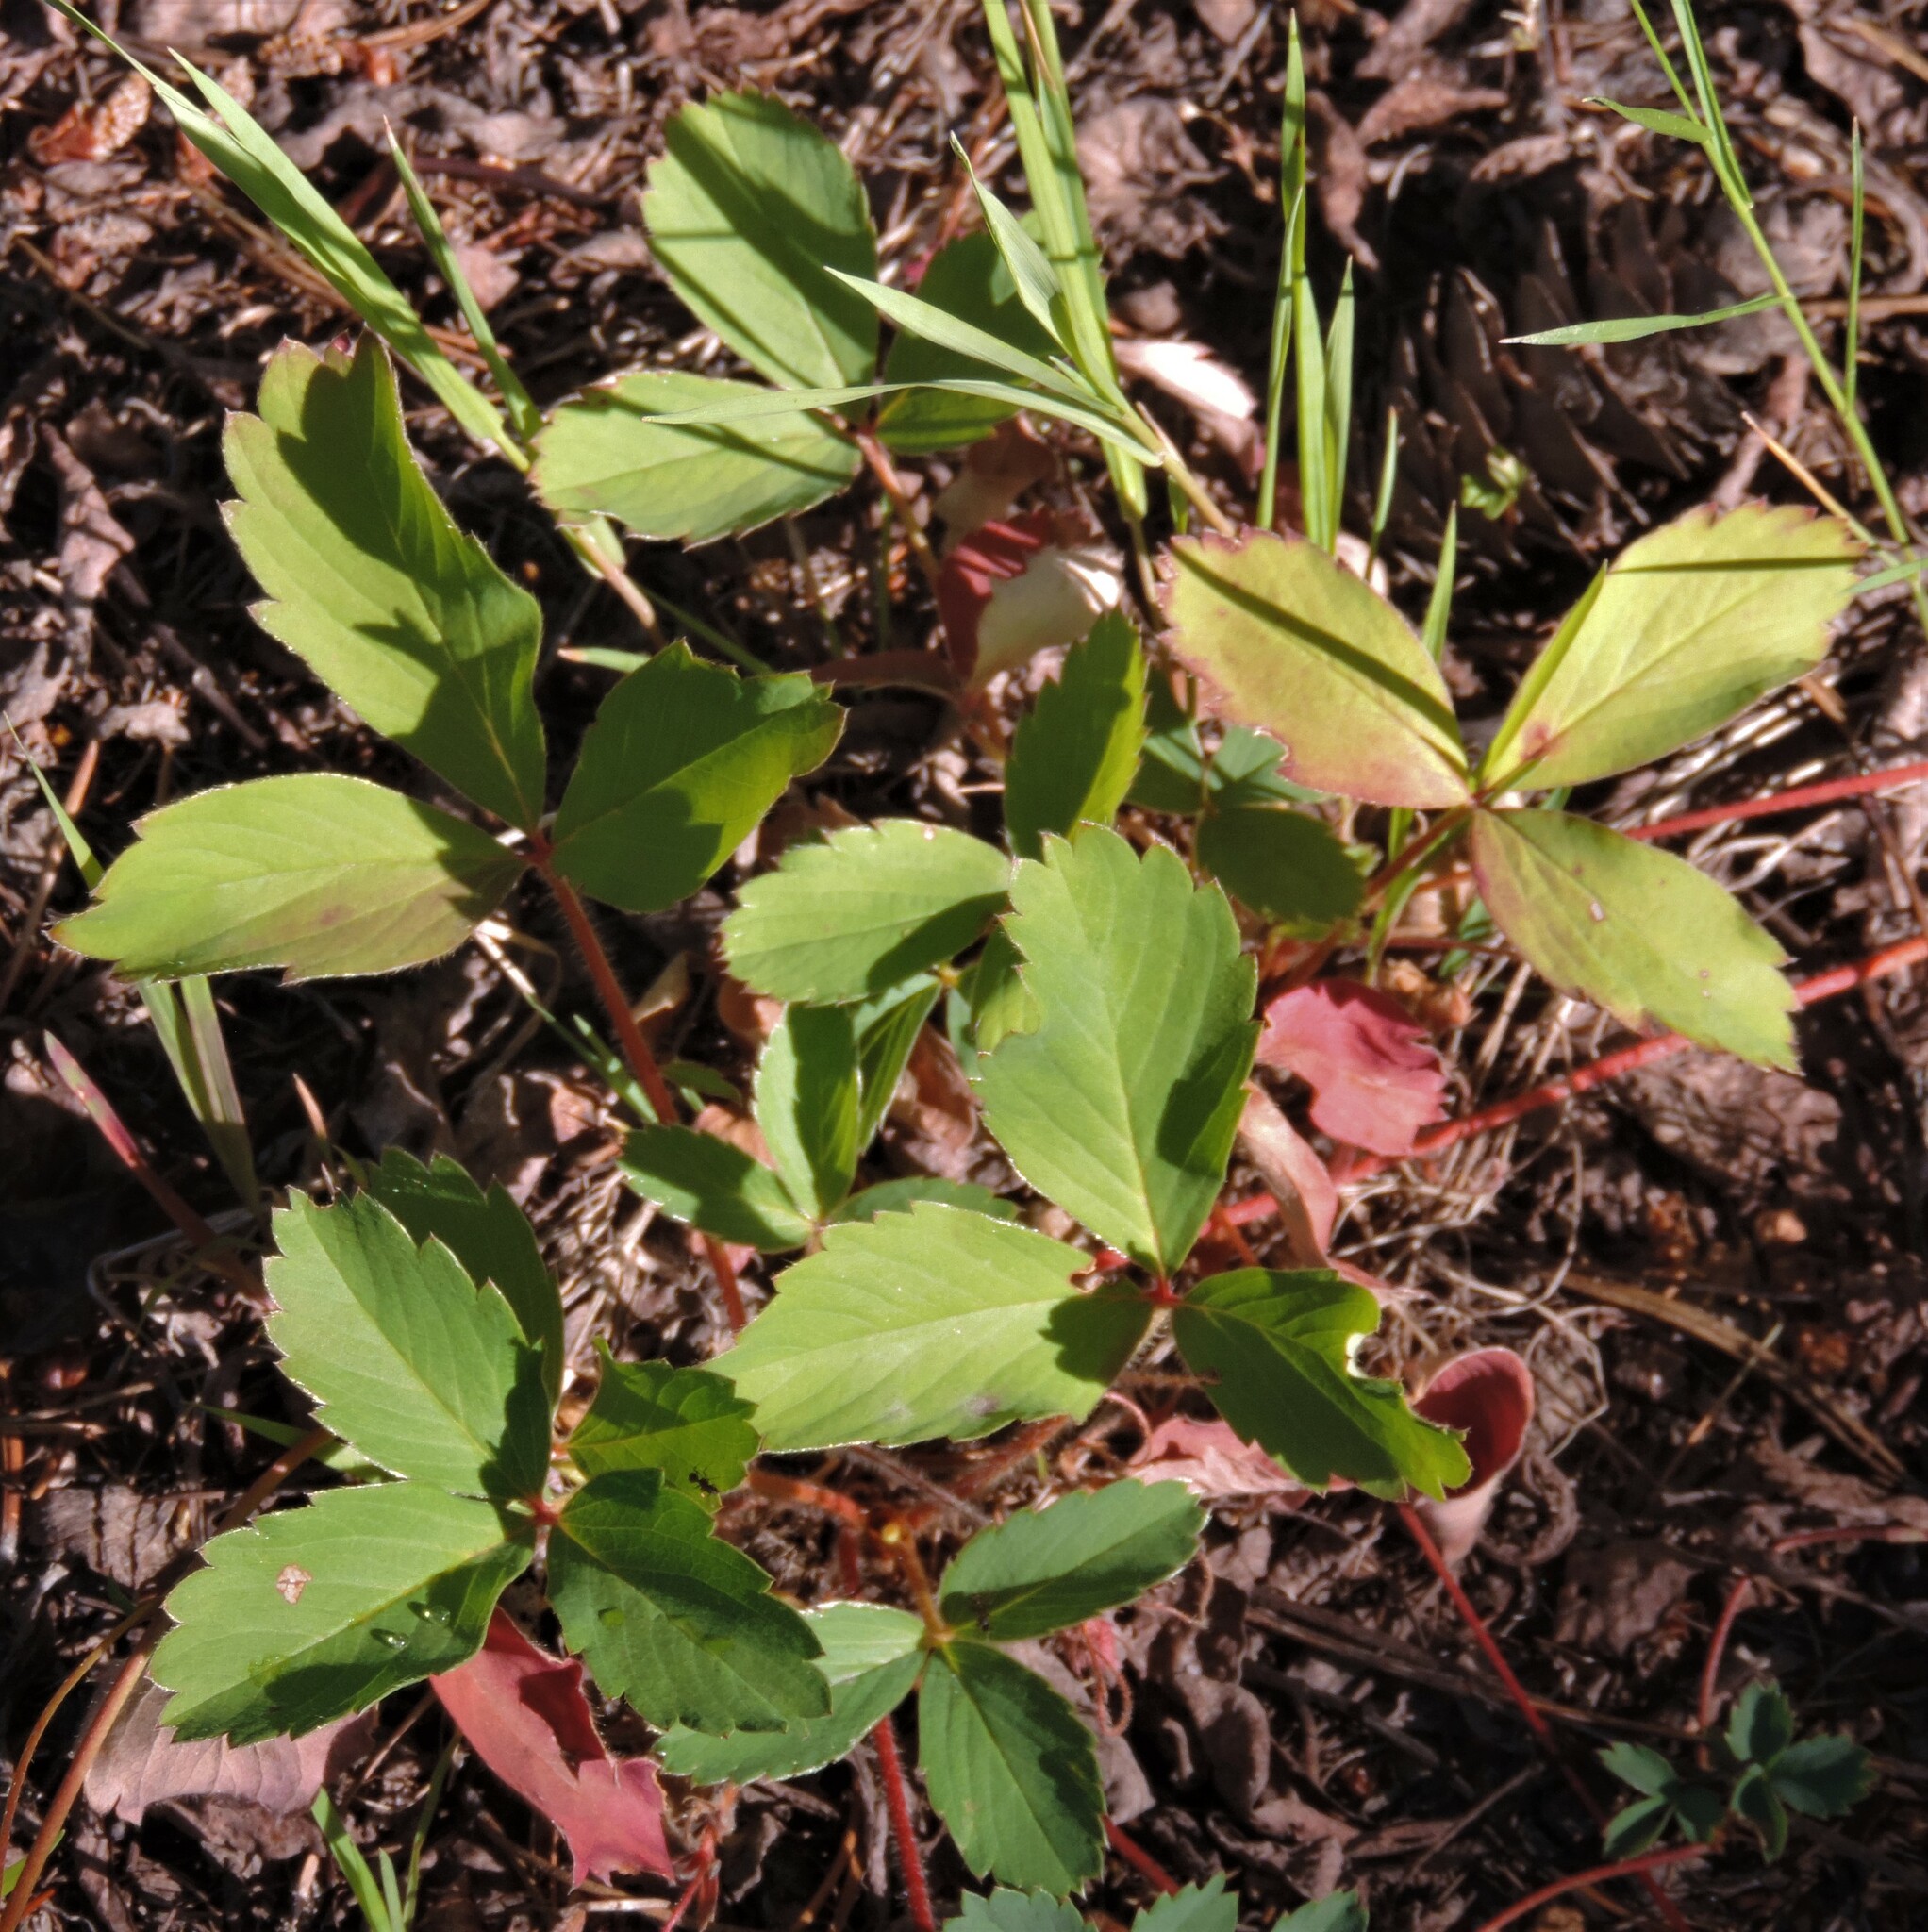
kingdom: Plantae
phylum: Tracheophyta
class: Magnoliopsida
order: Rosales
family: Rosaceae
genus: Fragaria
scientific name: Fragaria virginiana
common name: Thickleaved wild strawberry
